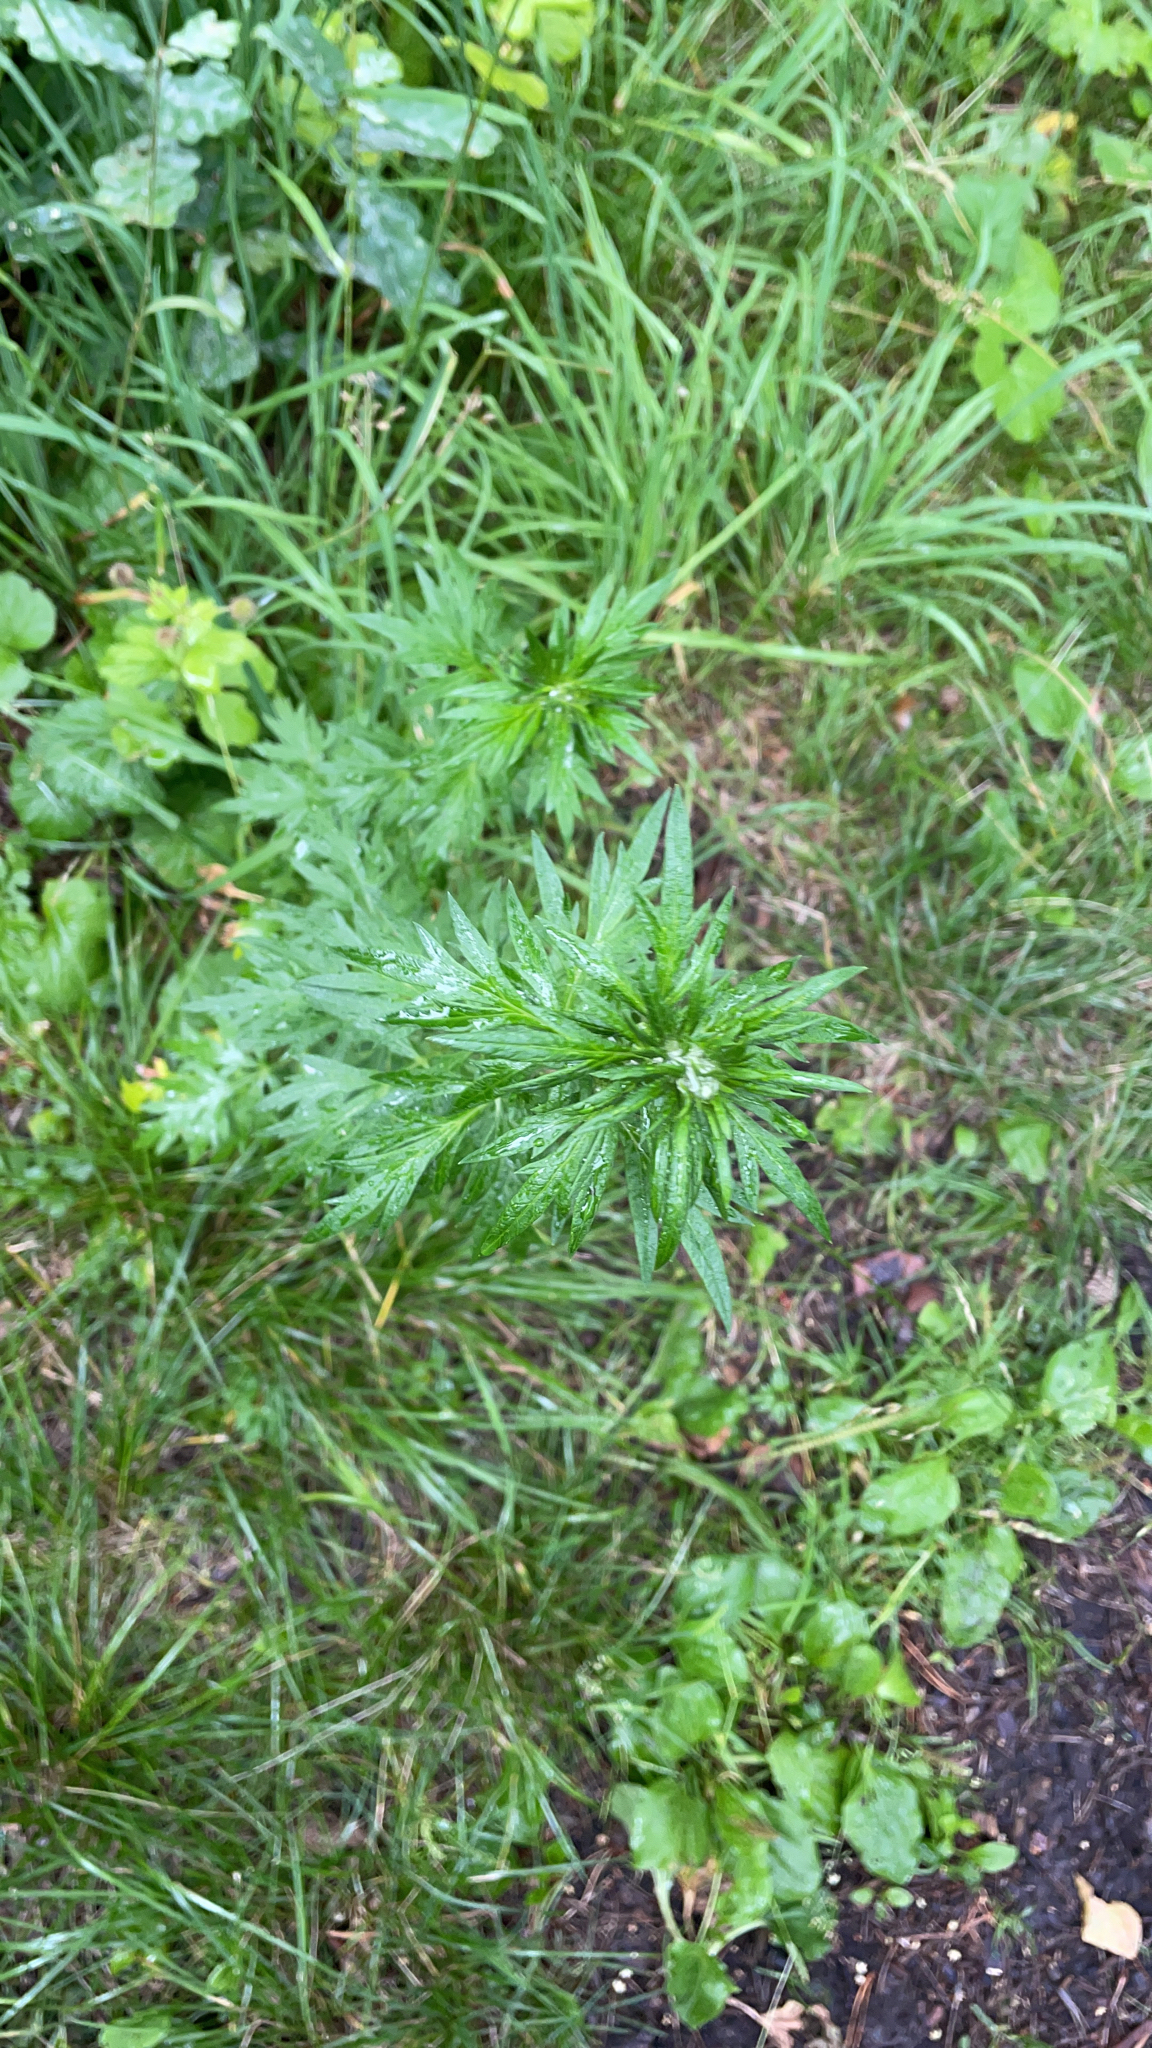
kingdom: Plantae
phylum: Tracheophyta
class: Magnoliopsida
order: Asterales
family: Asteraceae
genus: Artemisia
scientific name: Artemisia vulgaris
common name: Mugwort
